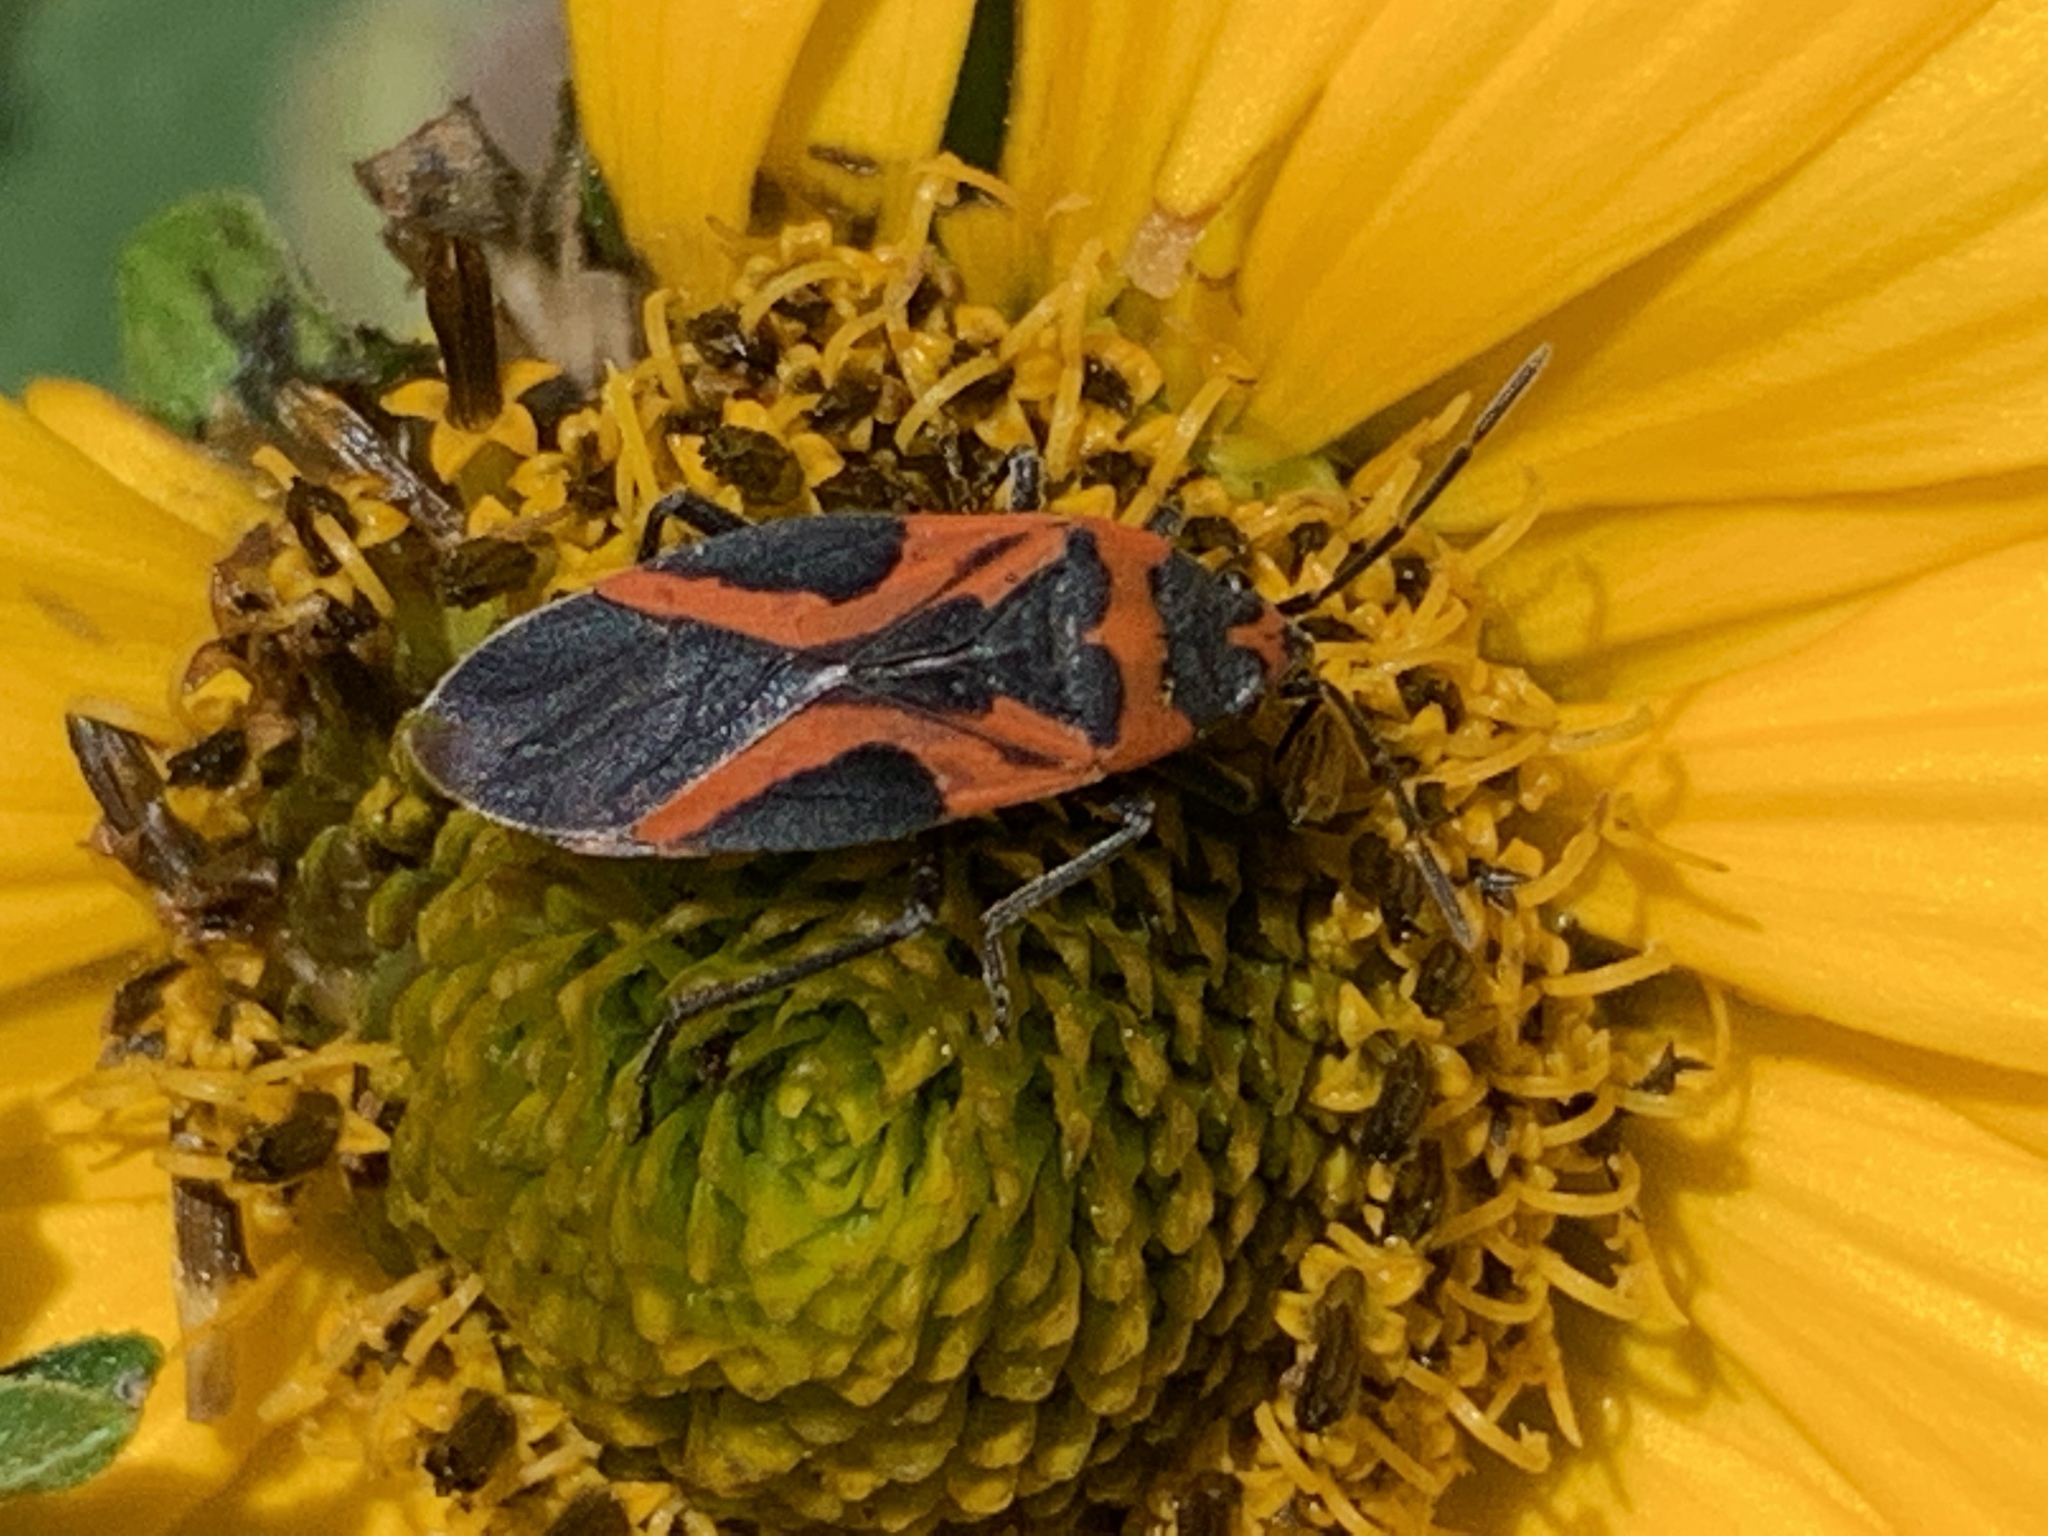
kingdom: Animalia
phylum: Arthropoda
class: Insecta
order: Hemiptera
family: Lygaeidae
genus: Lygaeus
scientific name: Lygaeus turcicus
